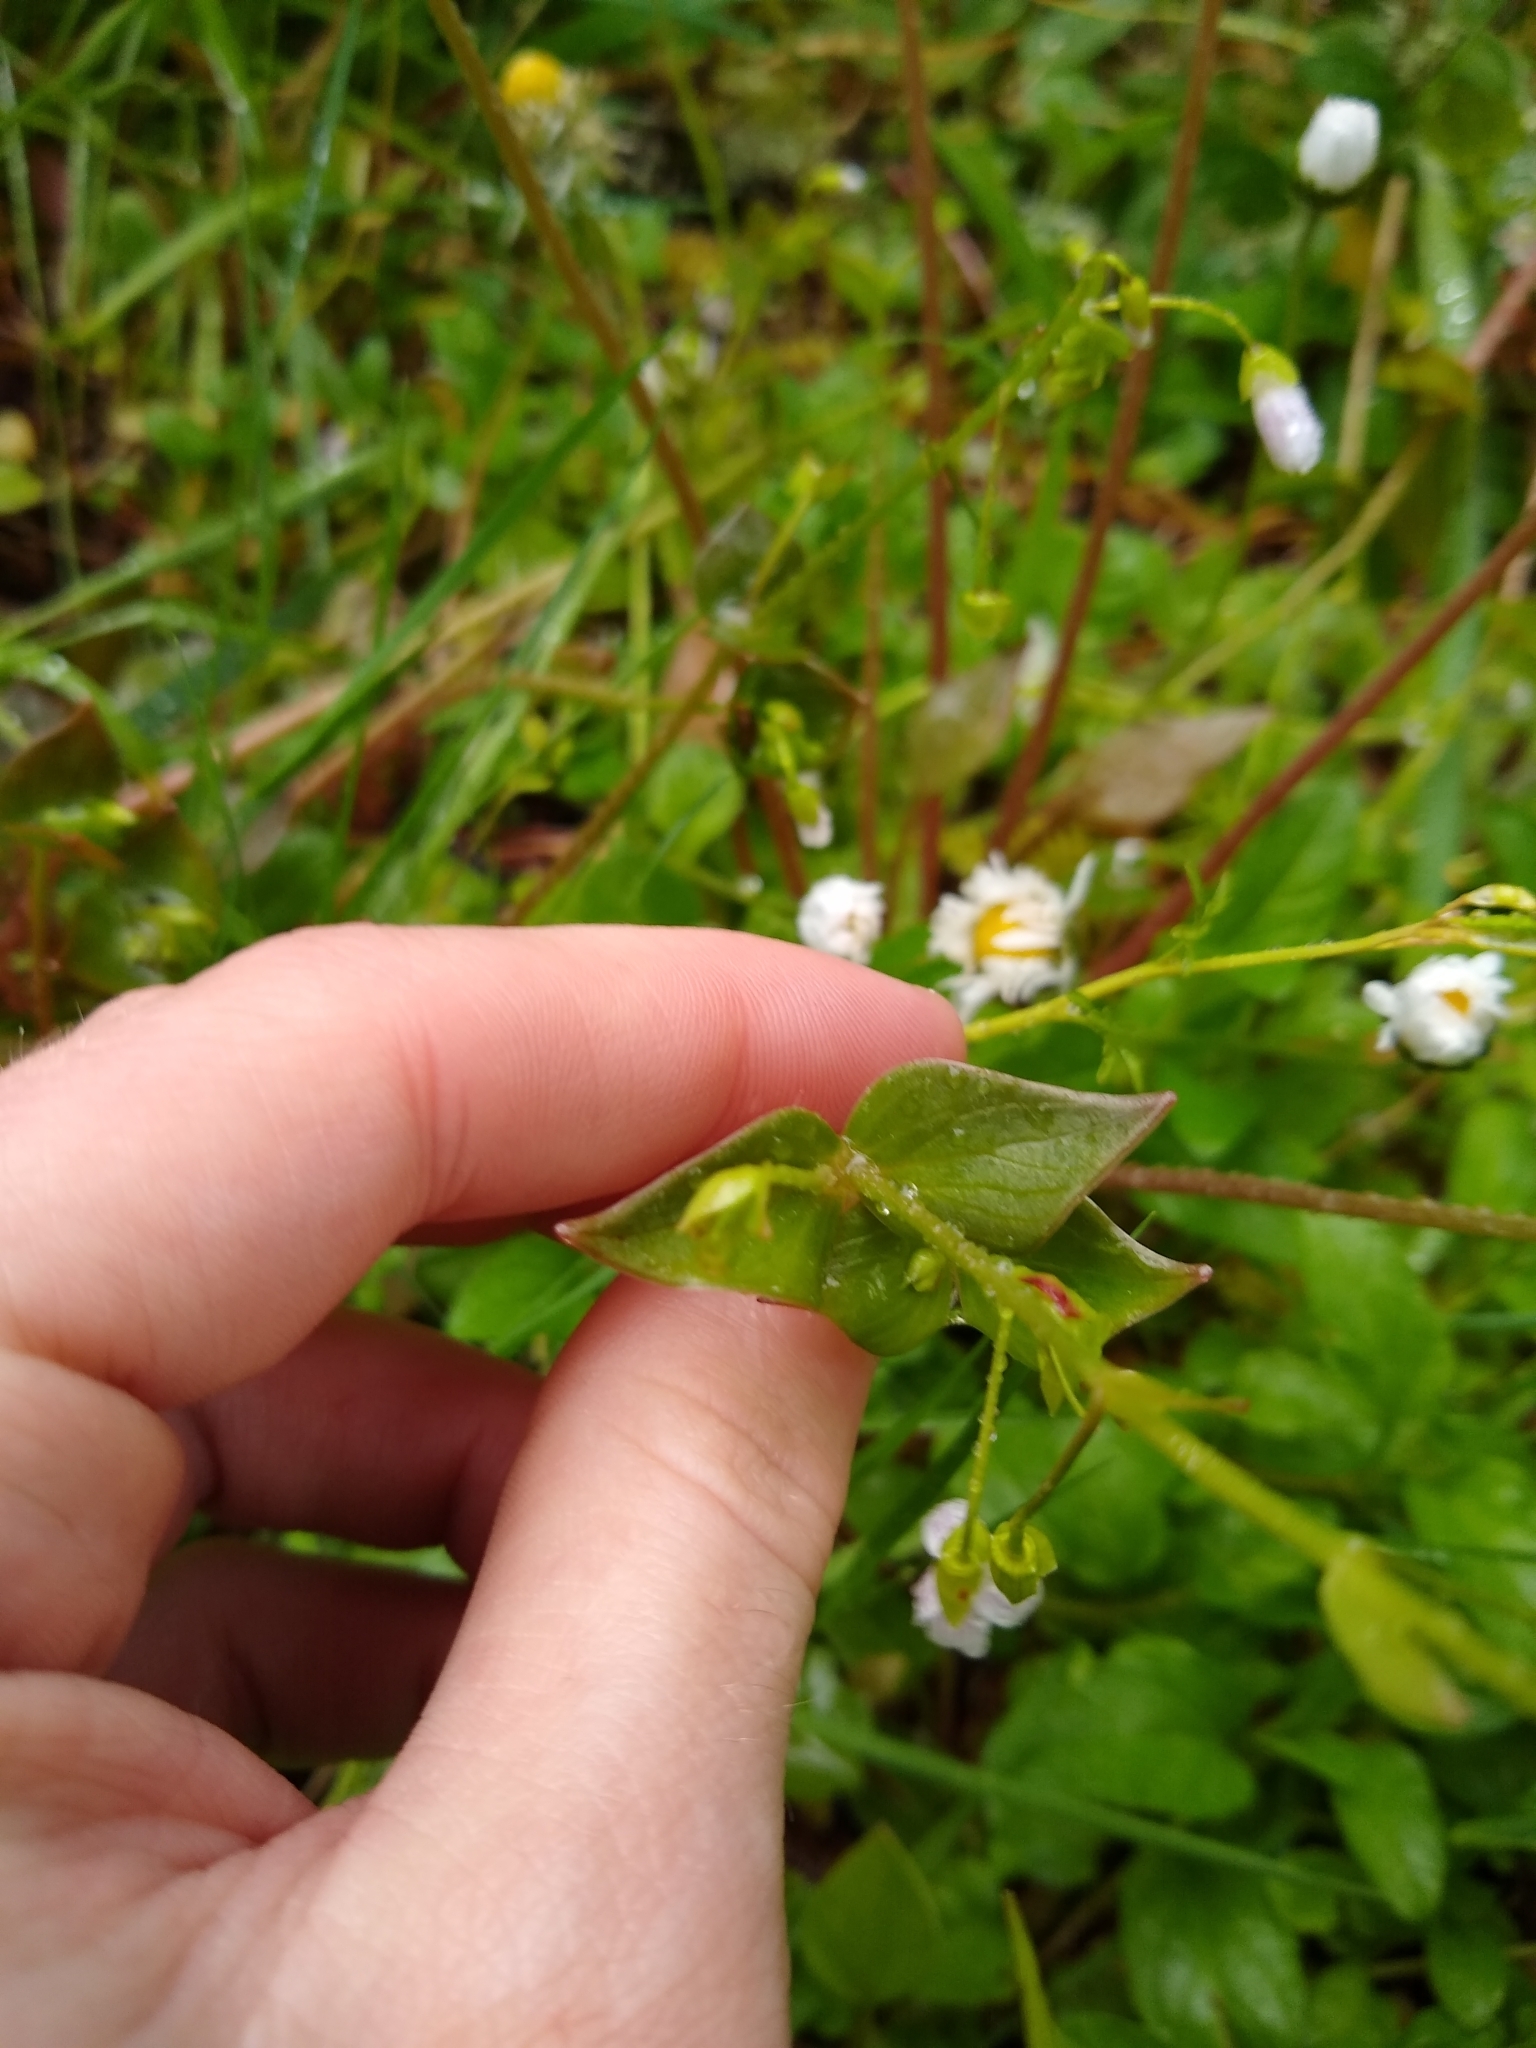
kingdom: Plantae
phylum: Tracheophyta
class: Magnoliopsida
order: Caryophyllales
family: Montiaceae
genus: Claytonia
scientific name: Claytonia sibirica
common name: Pink purslane
